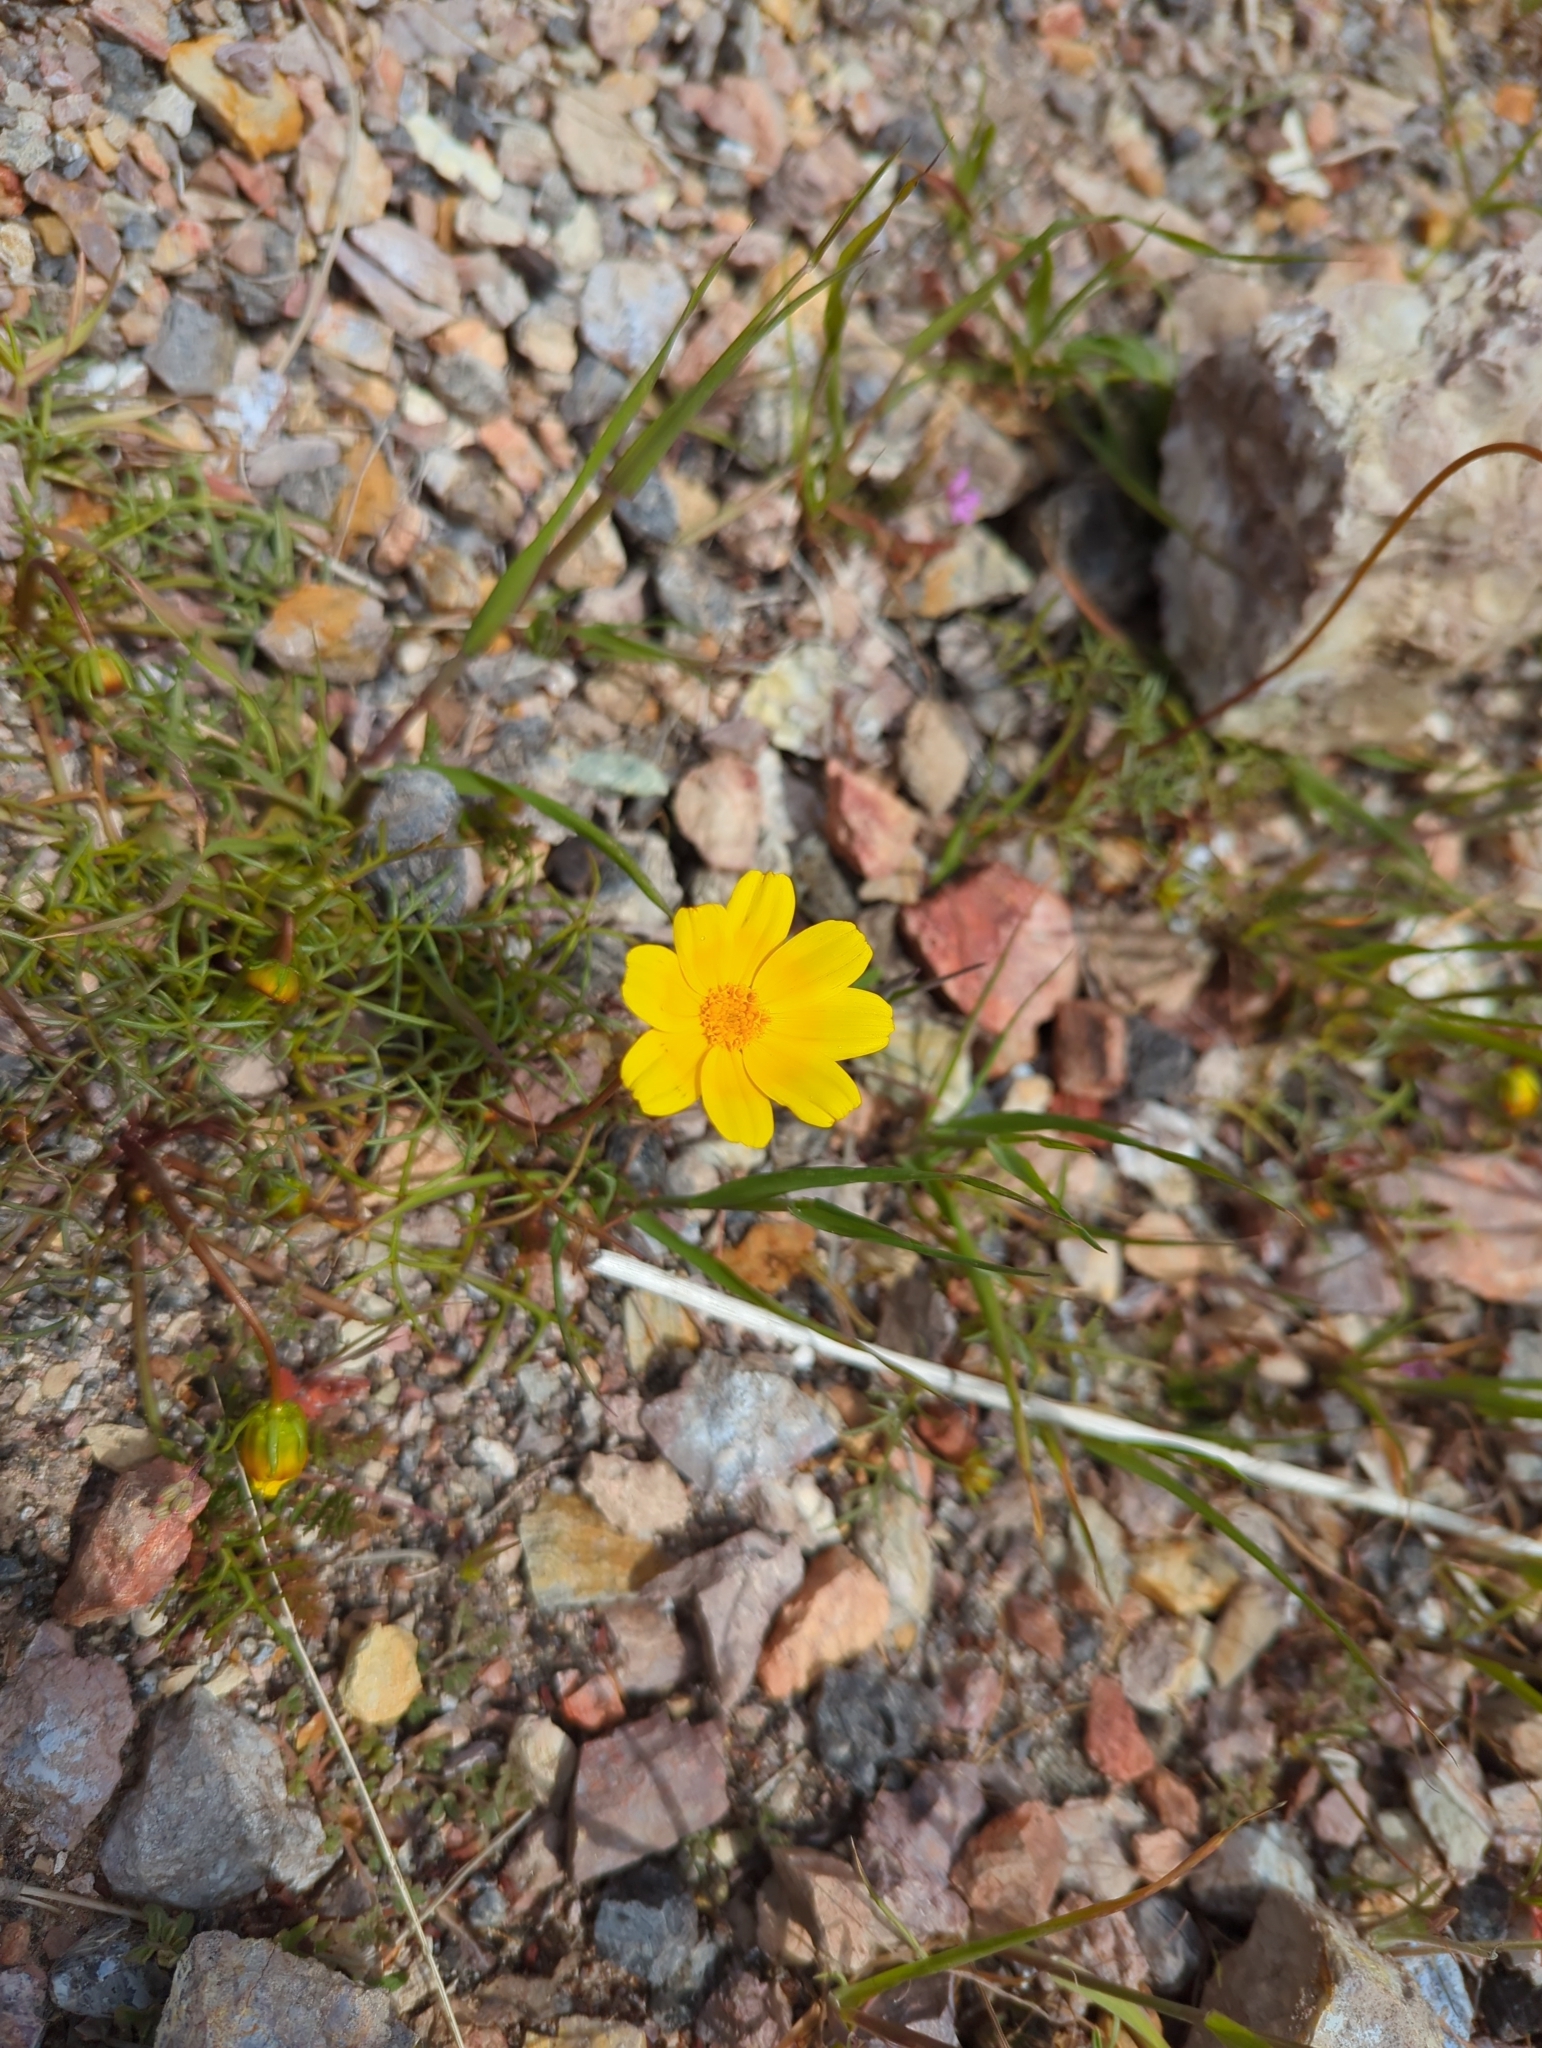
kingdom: Plantae
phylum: Tracheophyta
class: Magnoliopsida
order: Asterales
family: Asteraceae
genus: Coreopsis
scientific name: Coreopsis bigelovii
